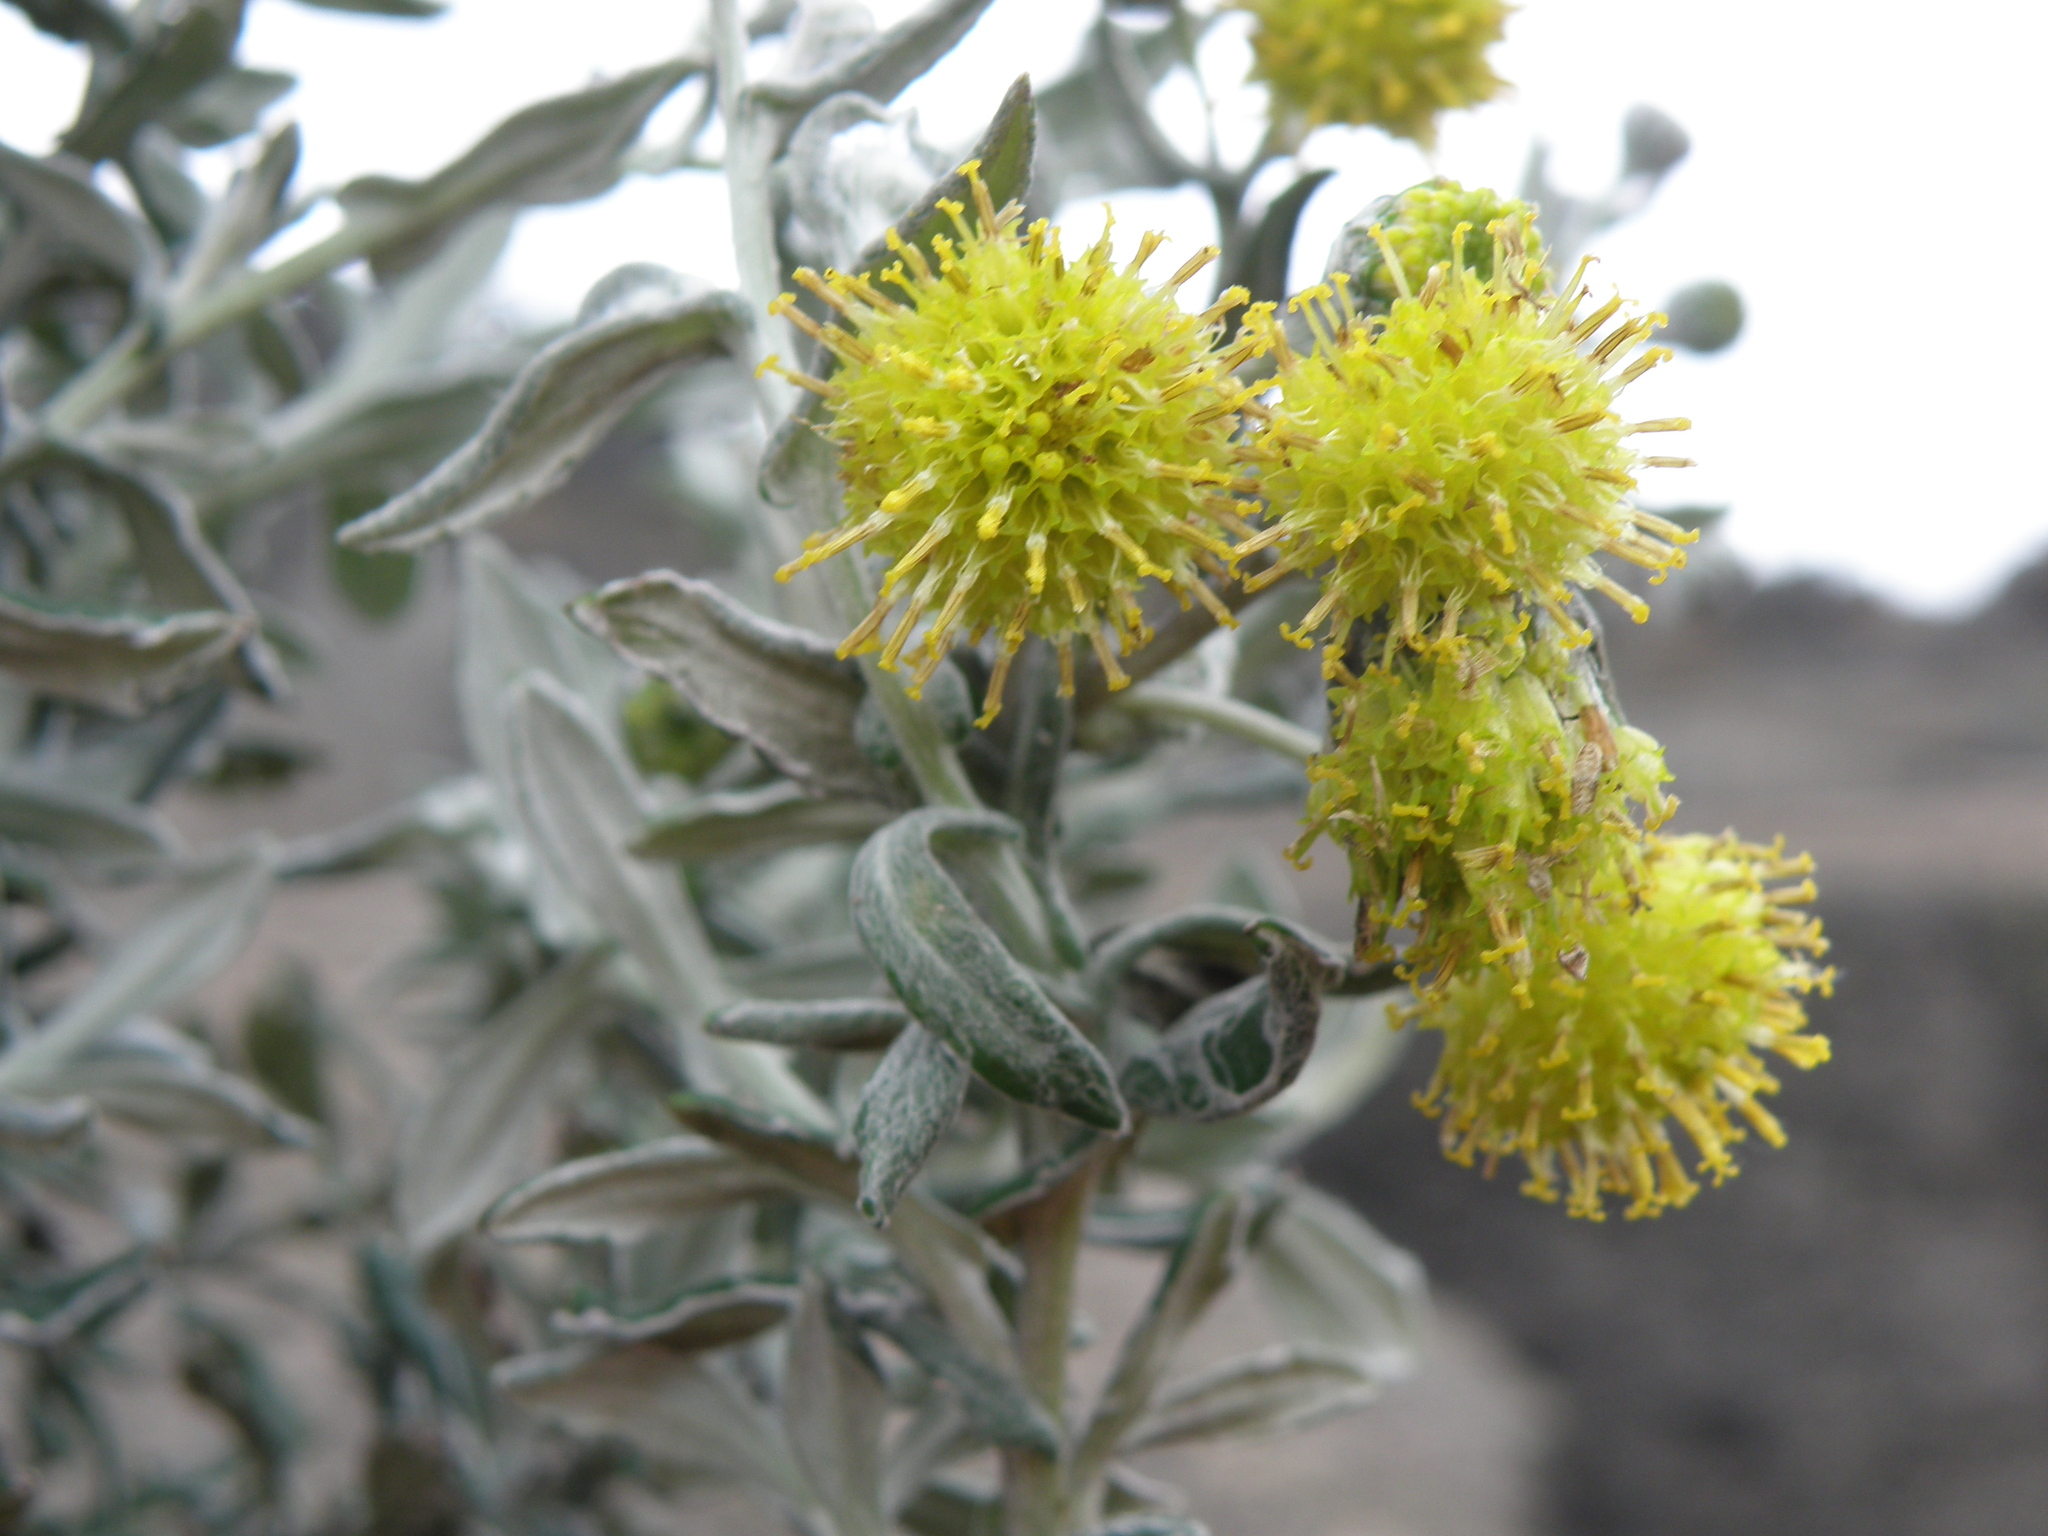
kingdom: Plantae
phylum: Tracheophyta
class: Magnoliopsida
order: Asterales
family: Asteraceae
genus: Senecio
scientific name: Senecio scrobicarioides
